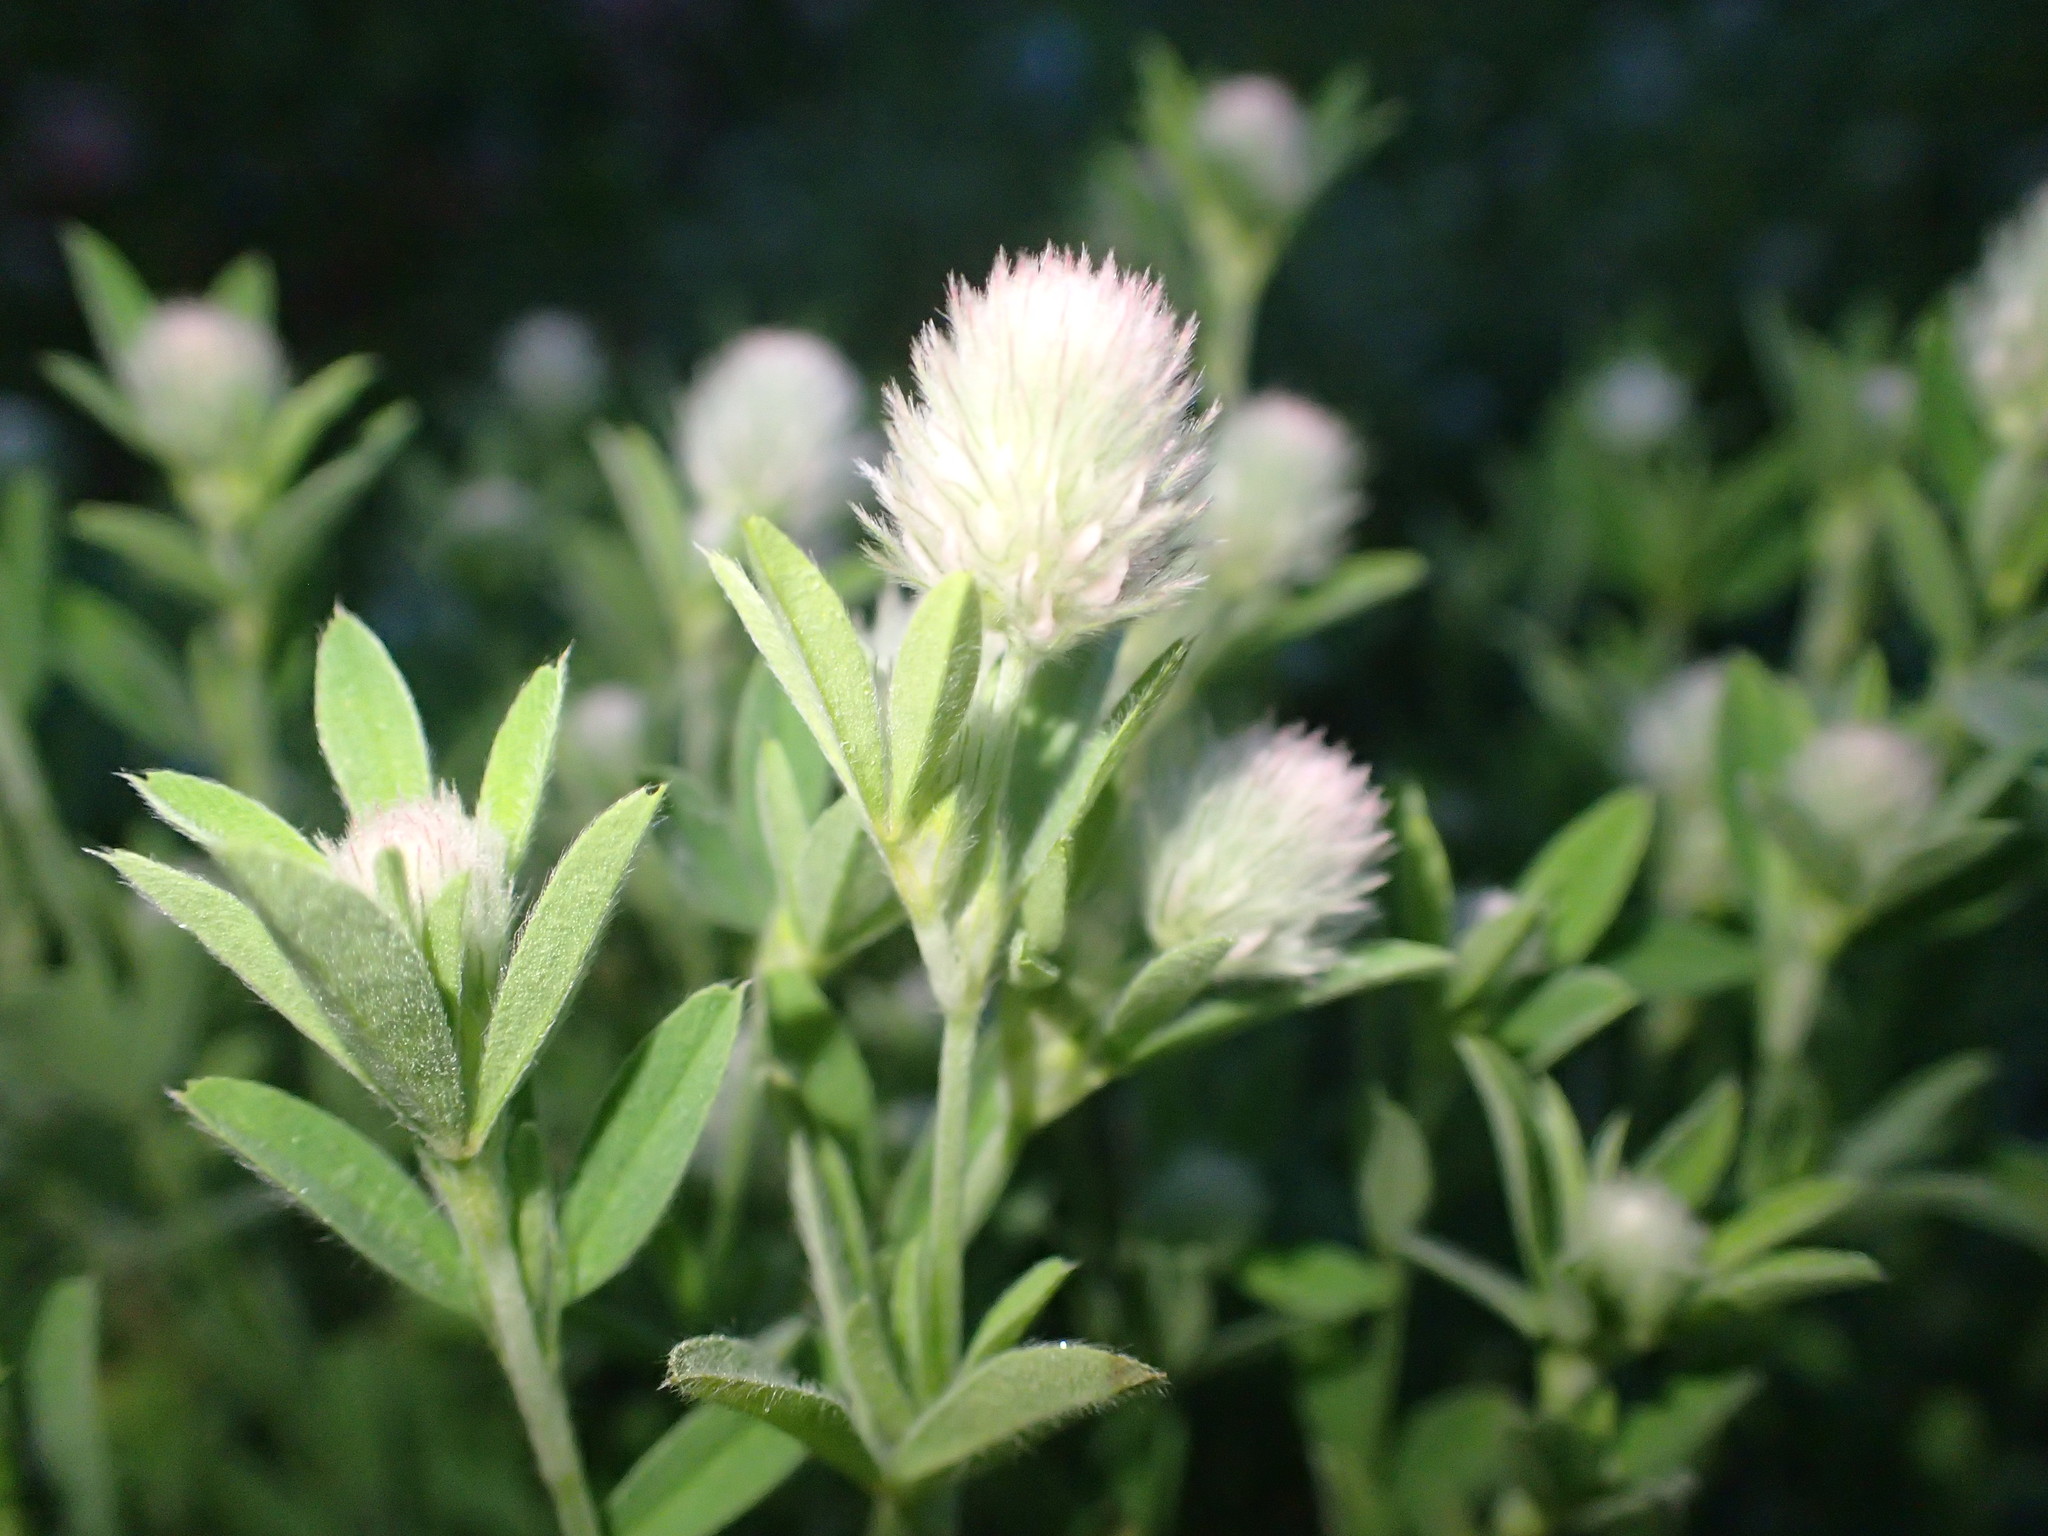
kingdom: Plantae
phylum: Tracheophyta
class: Magnoliopsida
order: Fabales
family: Fabaceae
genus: Trifolium
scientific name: Trifolium arvense
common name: Hare's-foot clover
